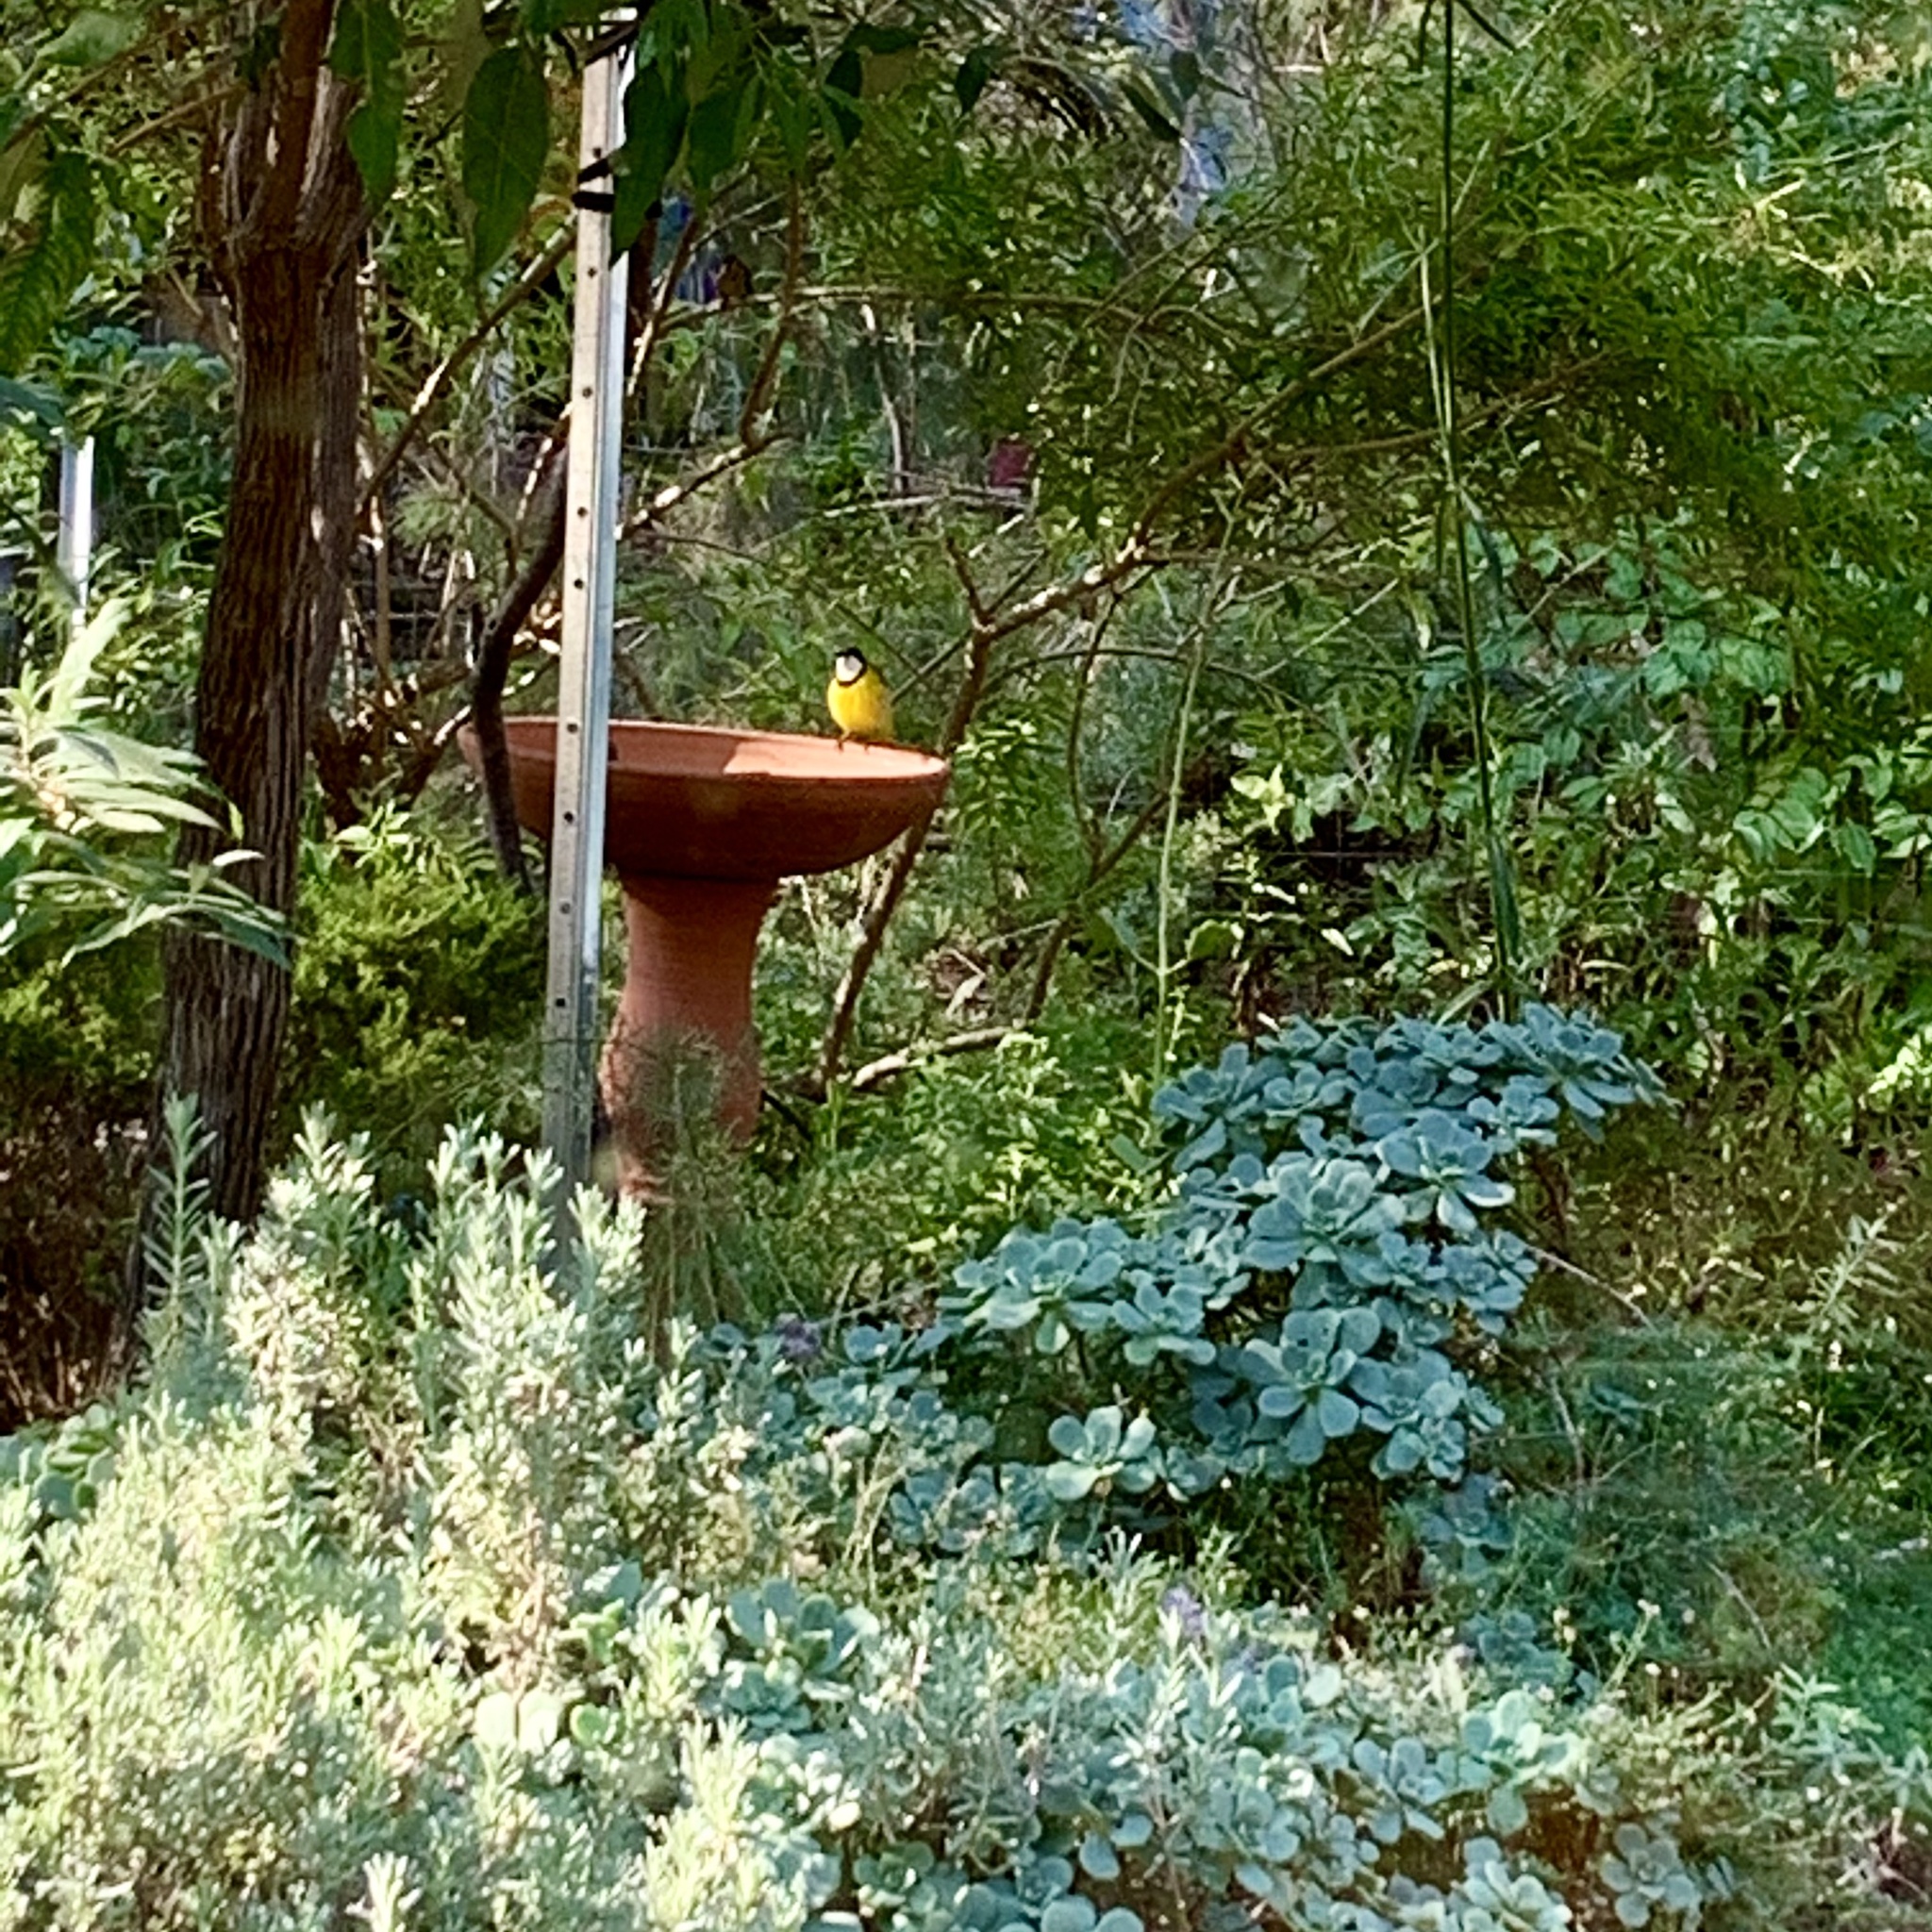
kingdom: Animalia
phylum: Chordata
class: Aves
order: Passeriformes
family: Pachycephalidae
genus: Pachycephala
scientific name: Pachycephala fuliginosa
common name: Western whistler
